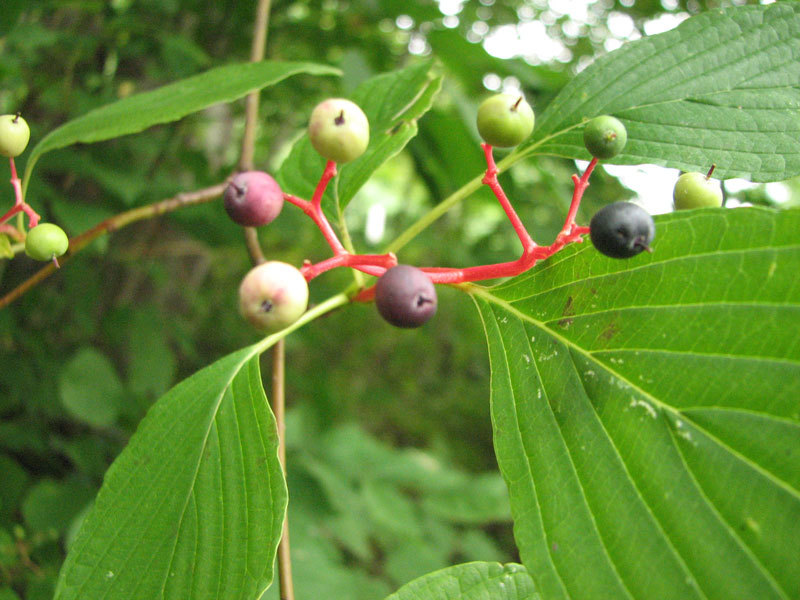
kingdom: Plantae
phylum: Tracheophyta
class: Magnoliopsida
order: Cornales
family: Cornaceae
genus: Cornus
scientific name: Cornus alternifolia
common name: Pagoda dogwood
